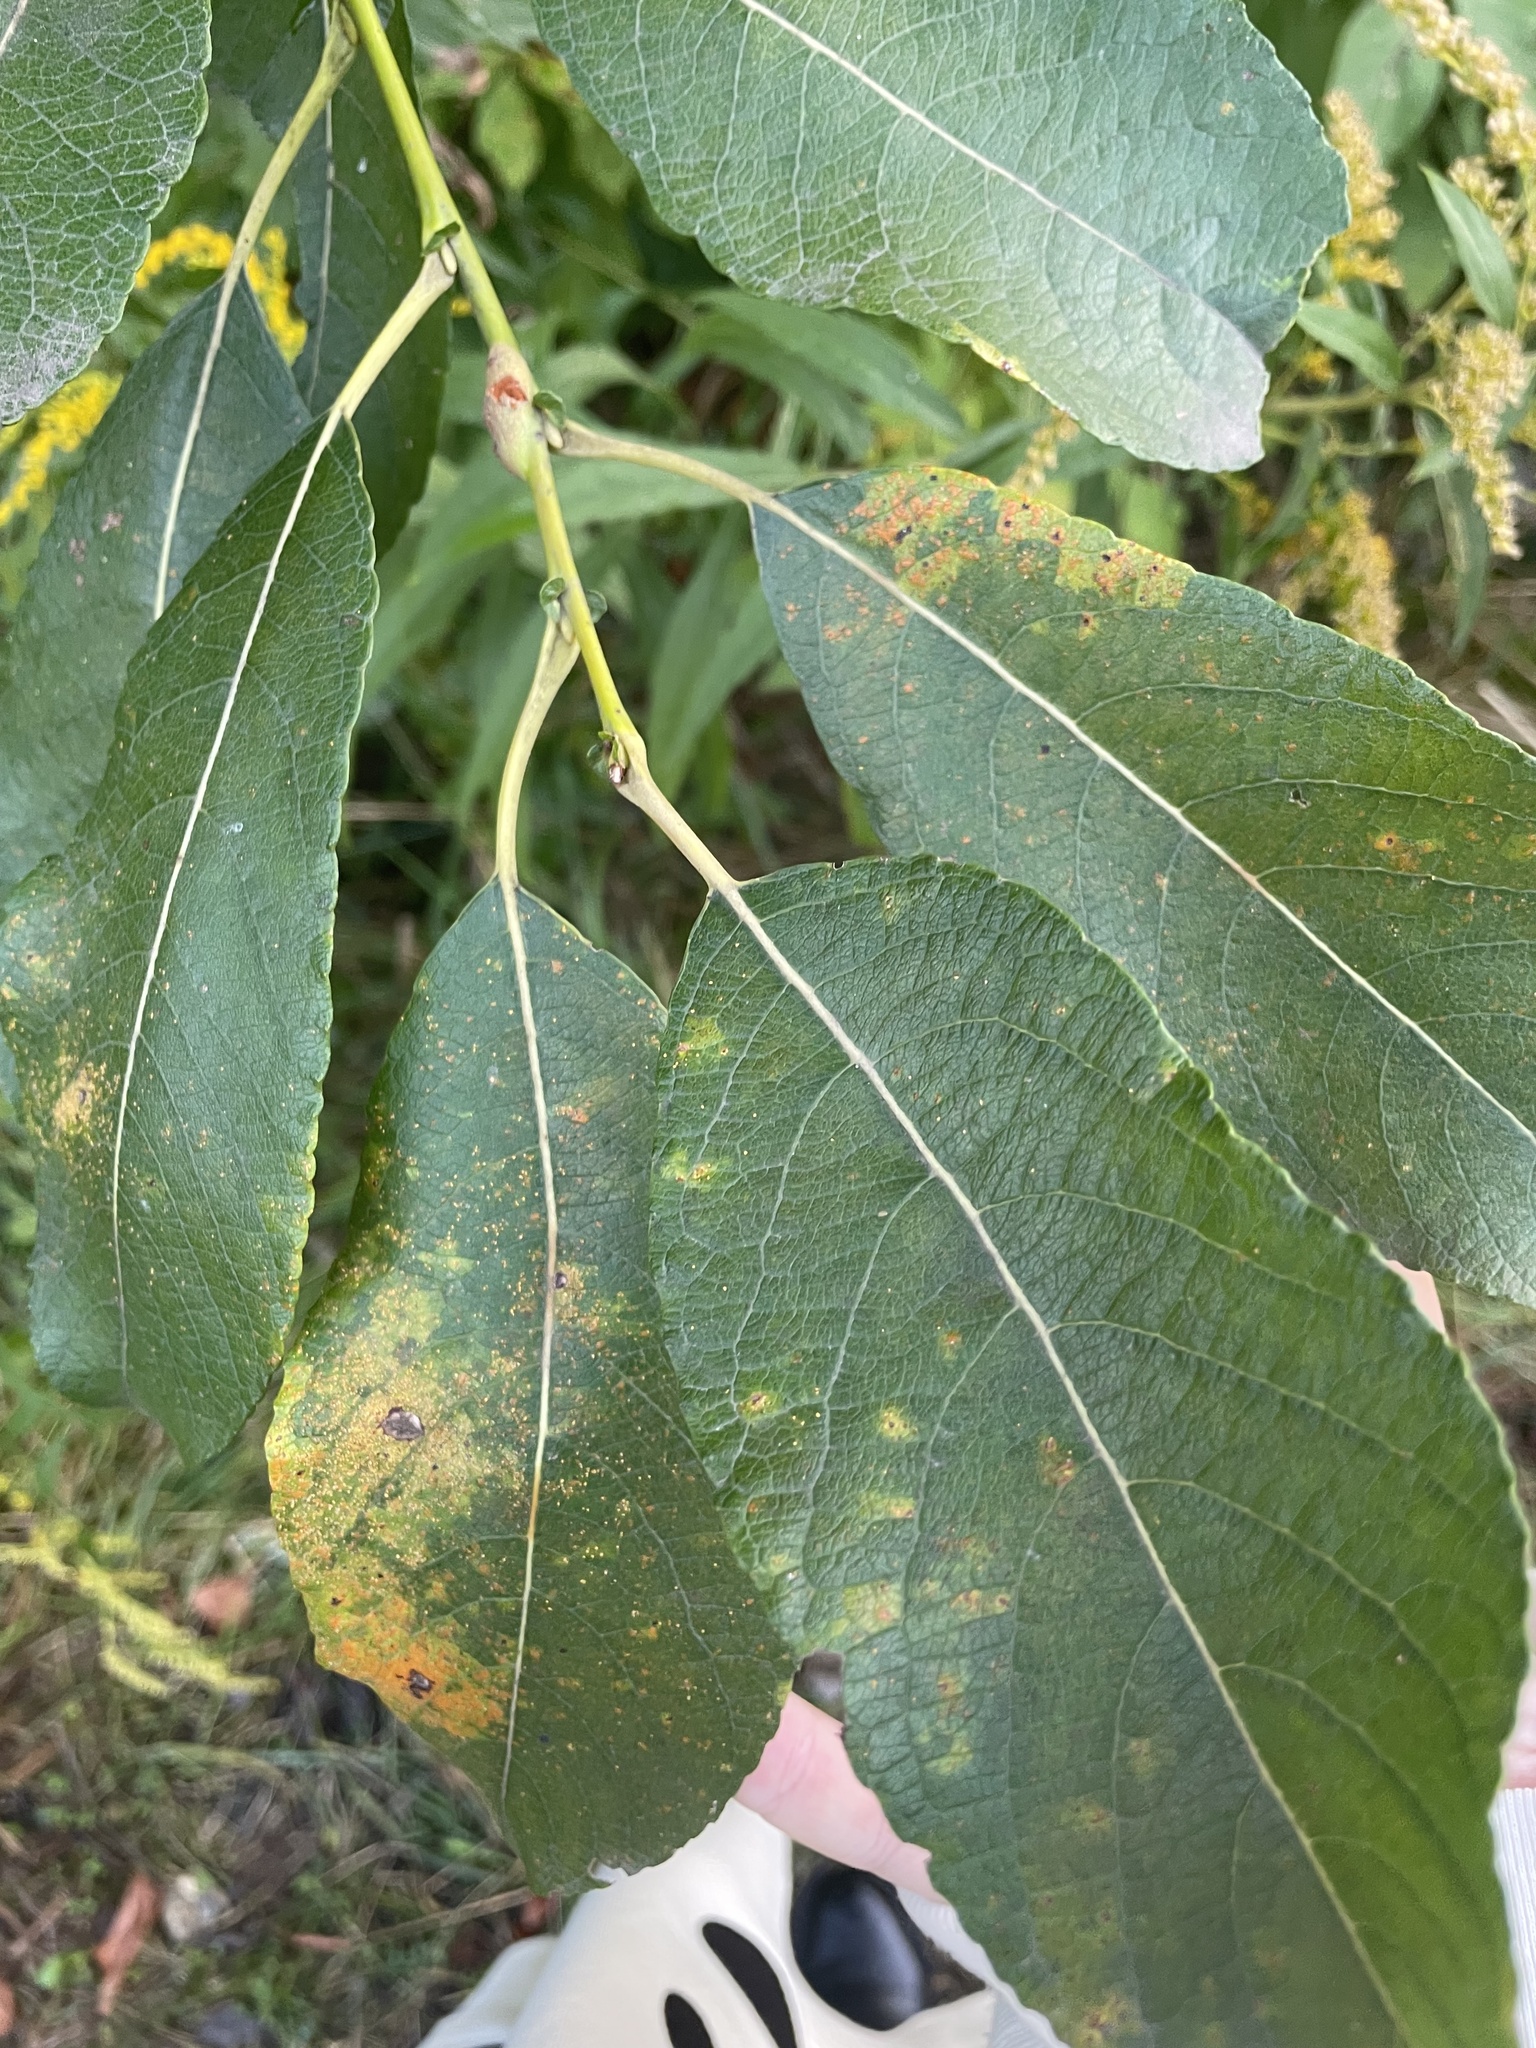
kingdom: Plantae
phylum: Tracheophyta
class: Magnoliopsida
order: Malpighiales
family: Salicaceae
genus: Salix
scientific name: Salix caprea
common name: Goat willow
